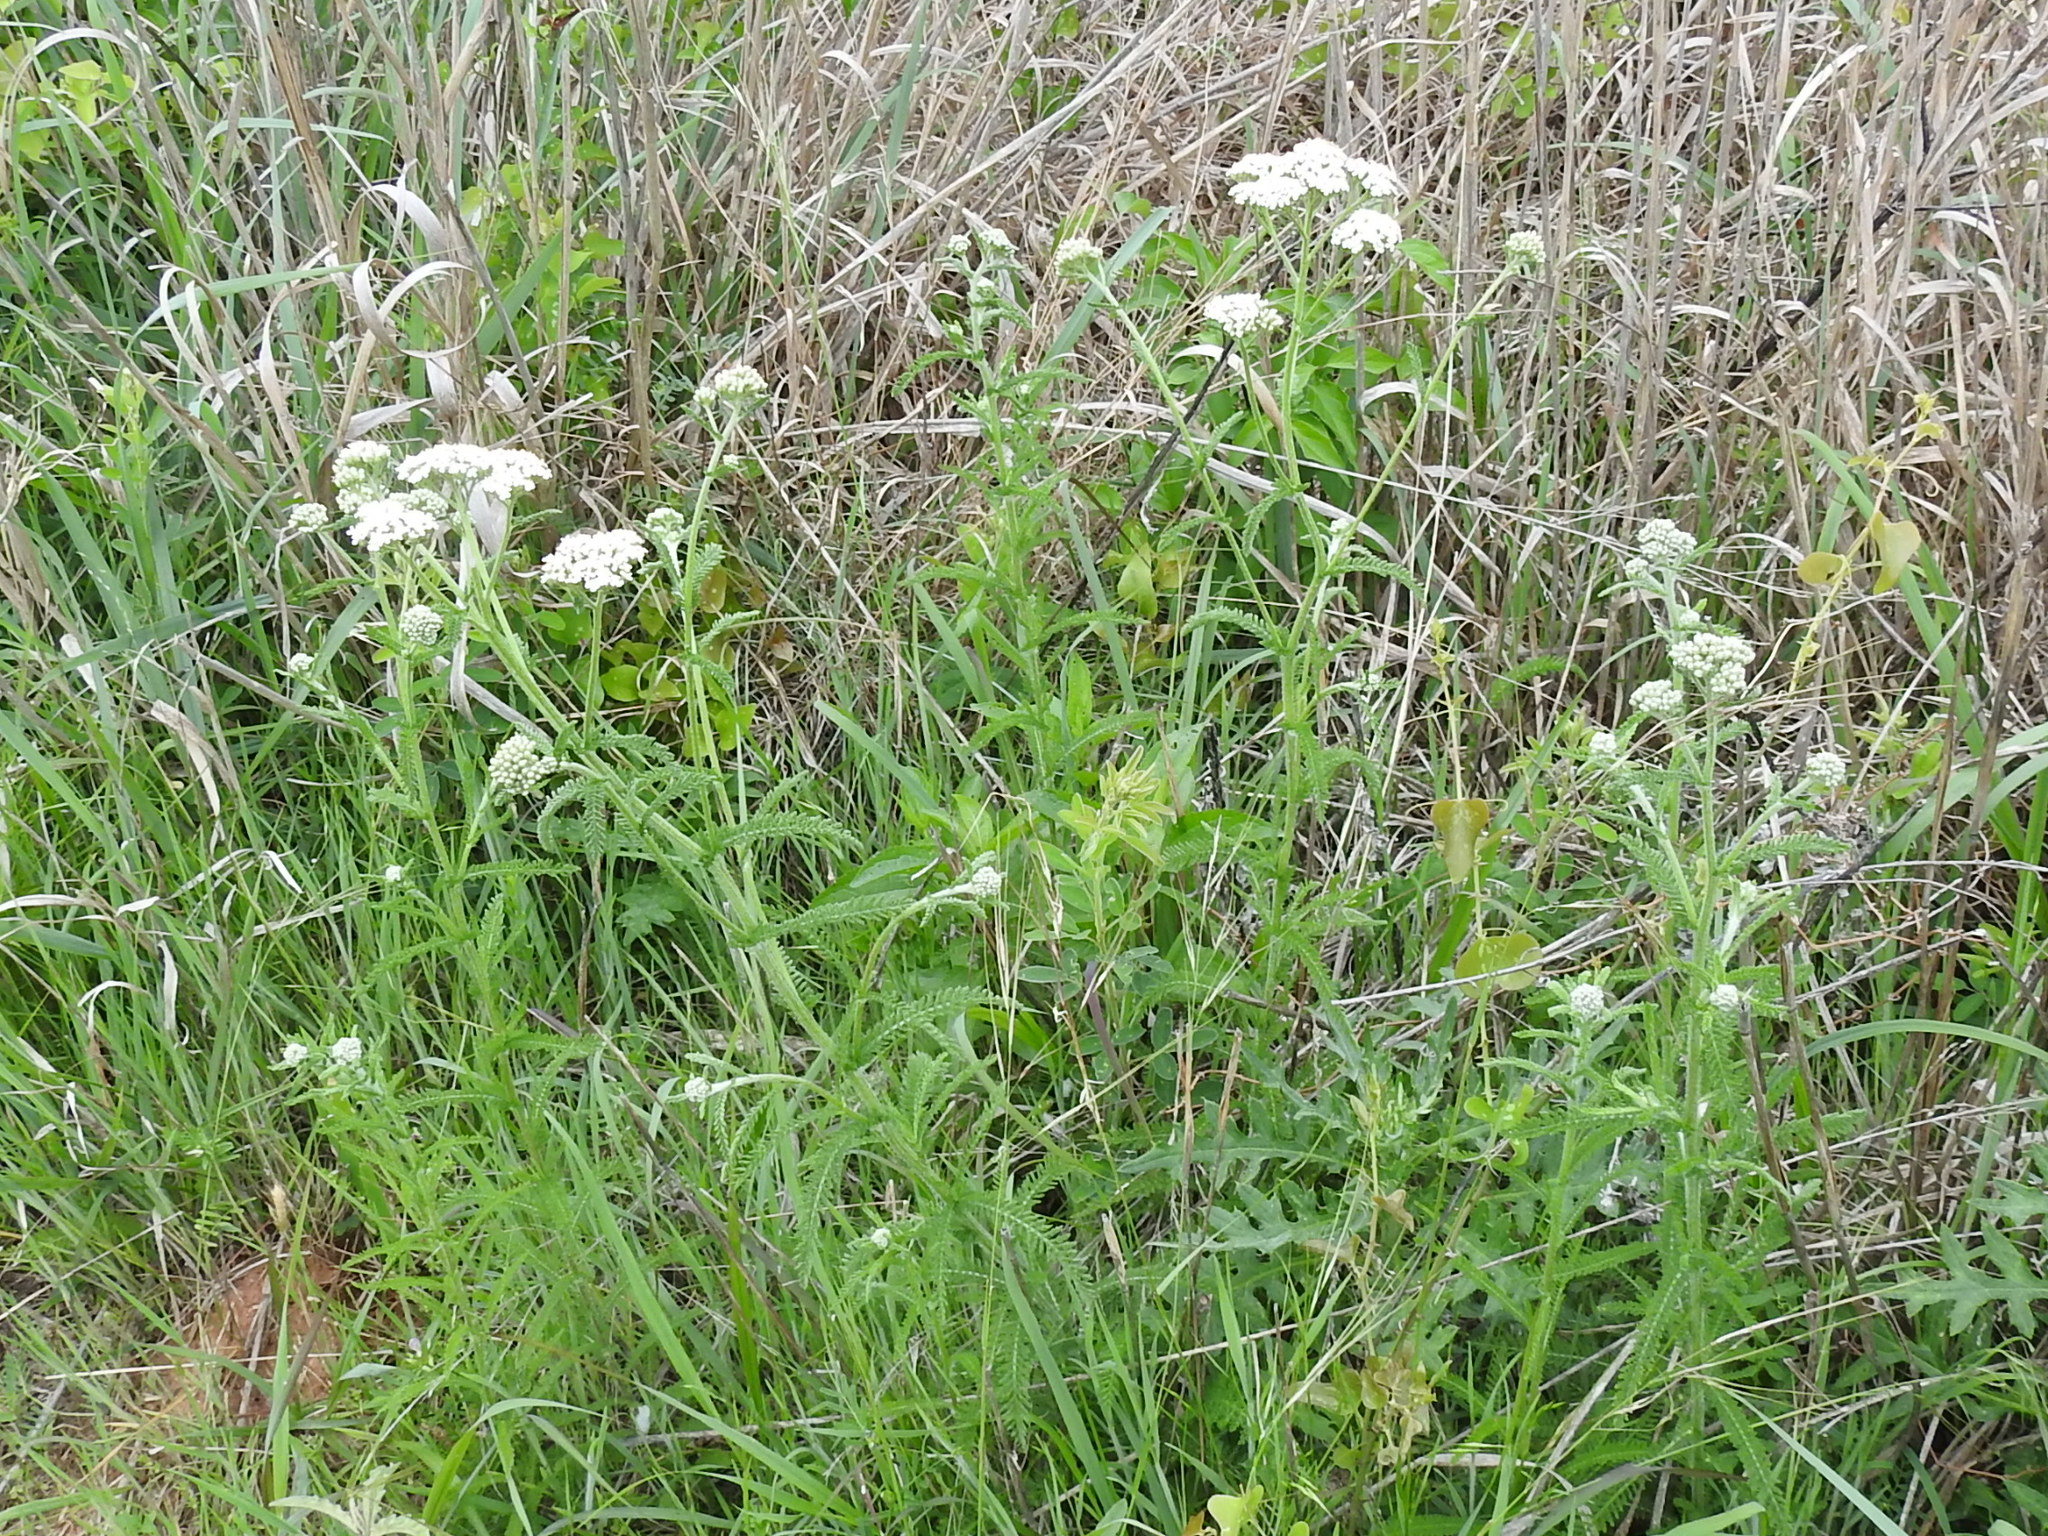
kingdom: Plantae
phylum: Tracheophyta
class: Magnoliopsida
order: Asterales
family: Asteraceae
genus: Achillea
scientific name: Achillea millefolium
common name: Yarrow
